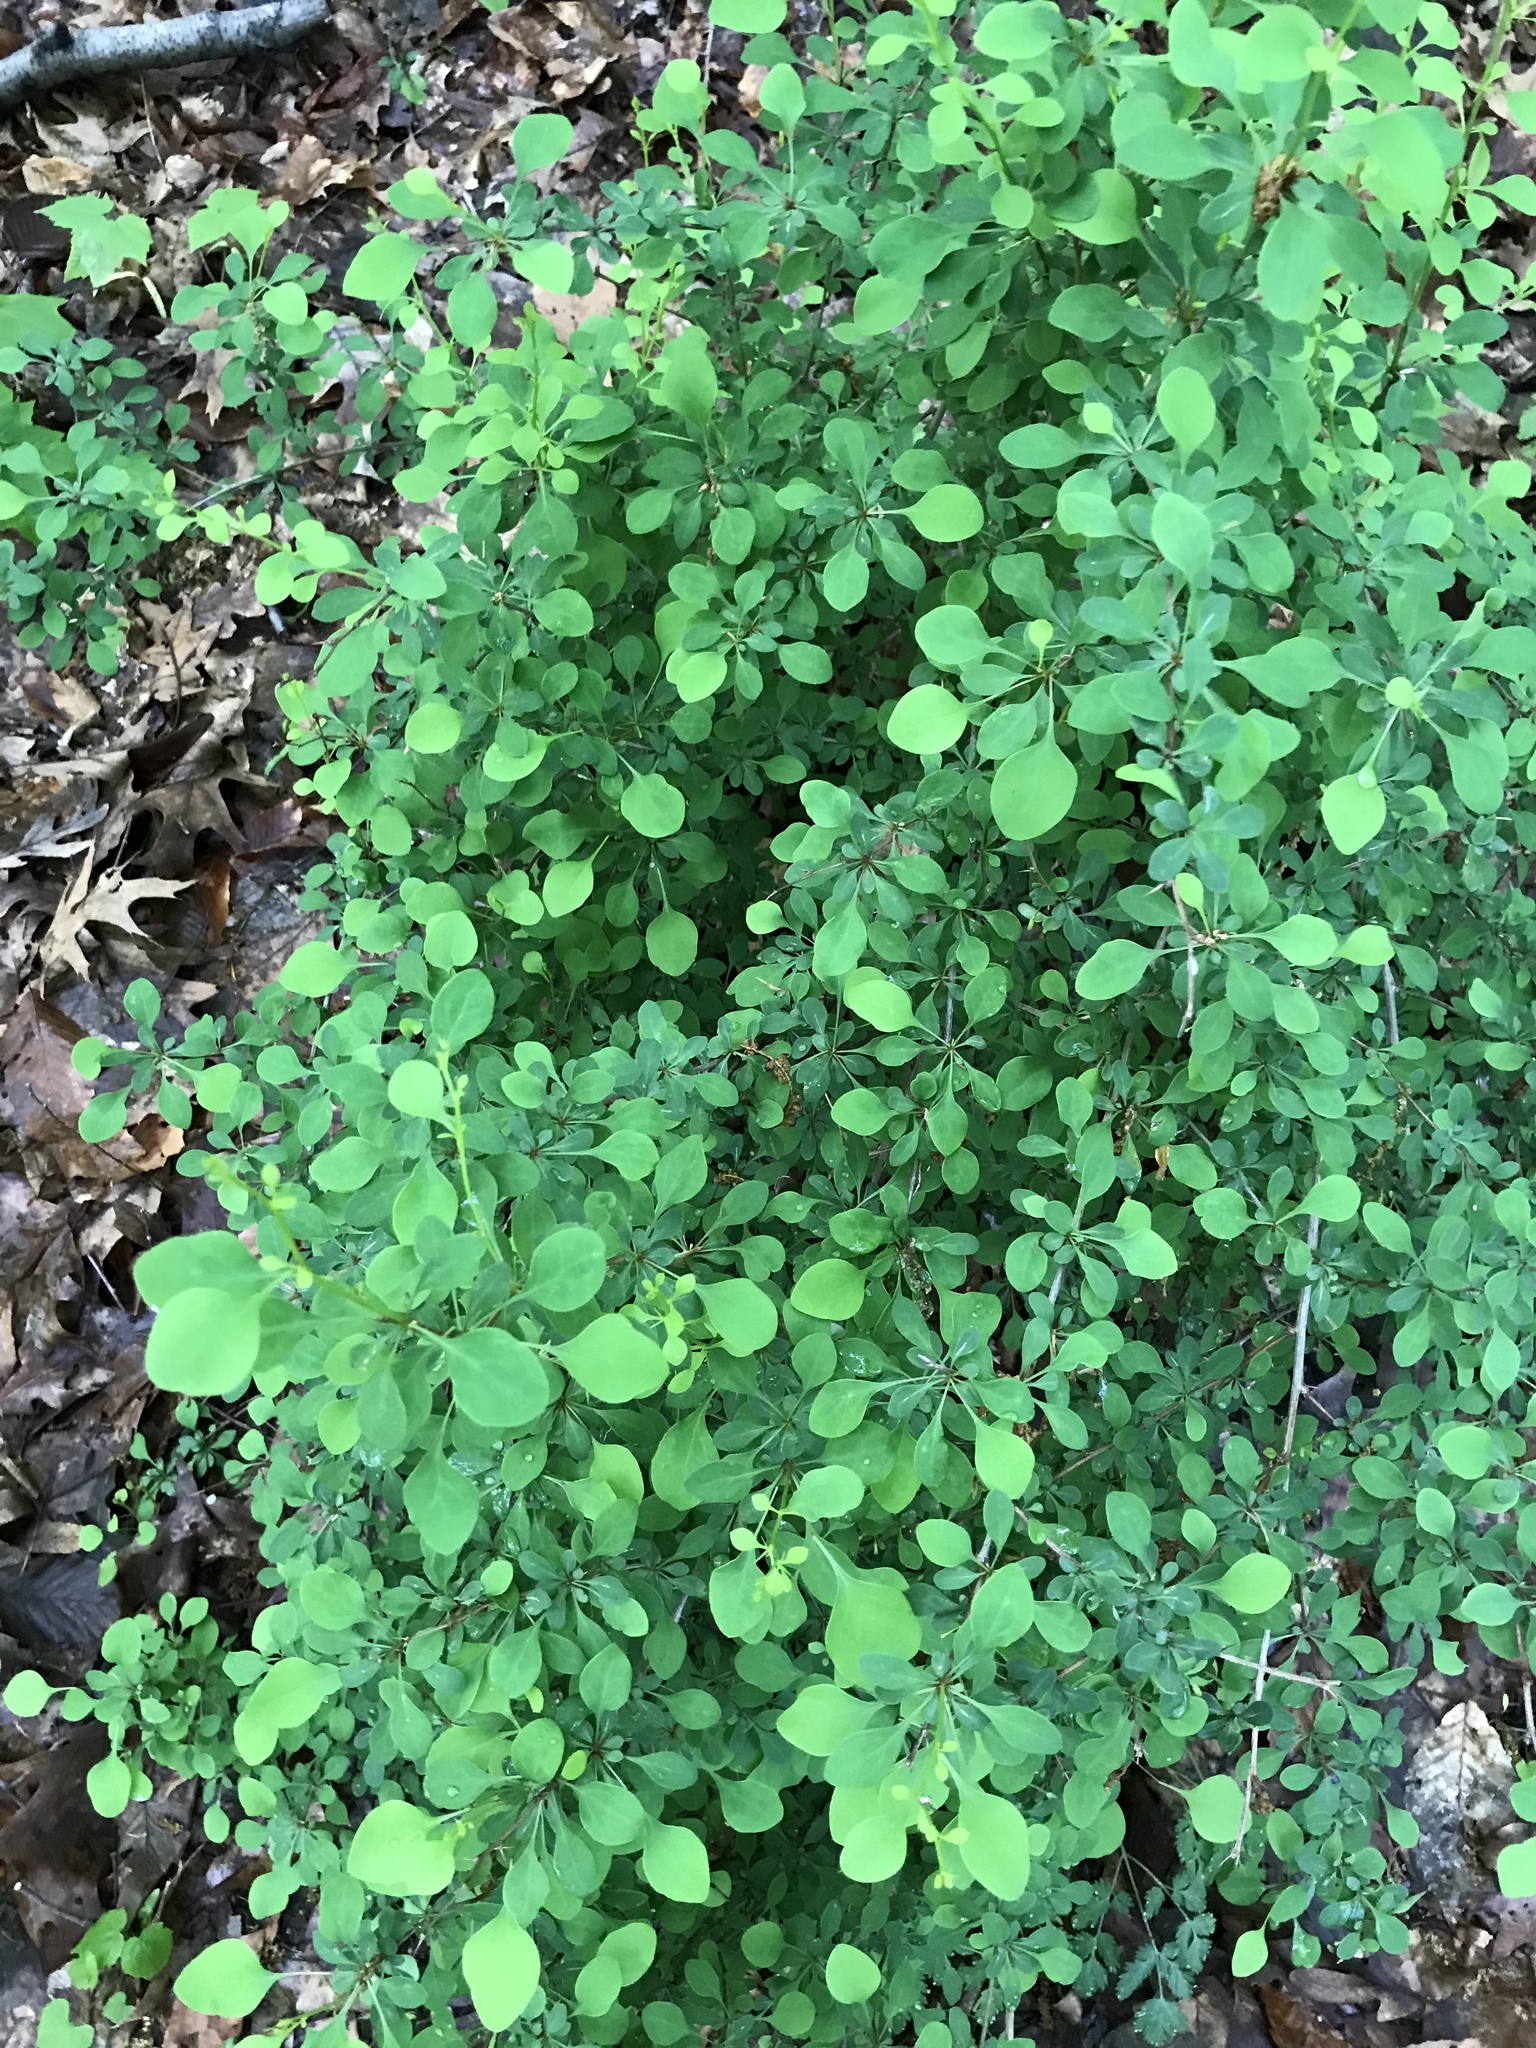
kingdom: Plantae
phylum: Tracheophyta
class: Magnoliopsida
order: Ranunculales
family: Berberidaceae
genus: Berberis
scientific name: Berberis thunbergii
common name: Japanese barberry
